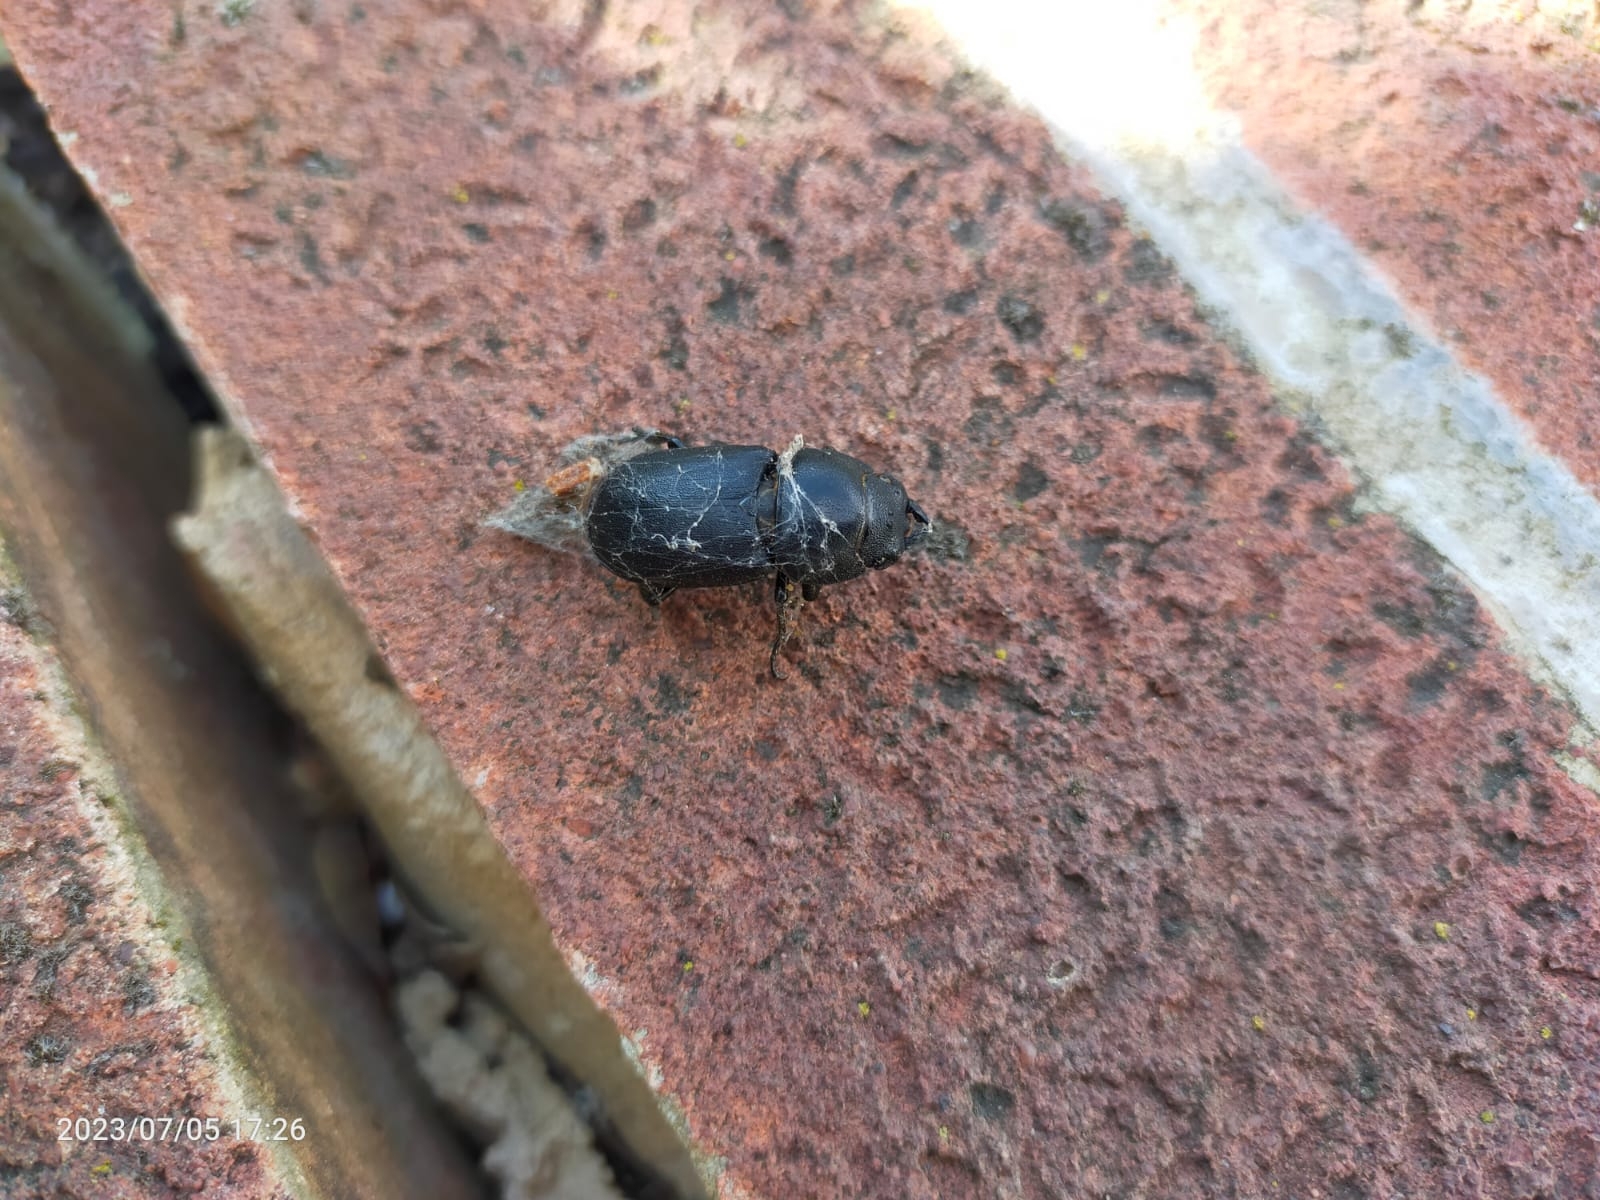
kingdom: Animalia
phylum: Arthropoda
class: Insecta
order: Coleoptera
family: Lucanidae
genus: Dorcus
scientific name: Dorcus parallelipipedus
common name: Lesser stag beetle
